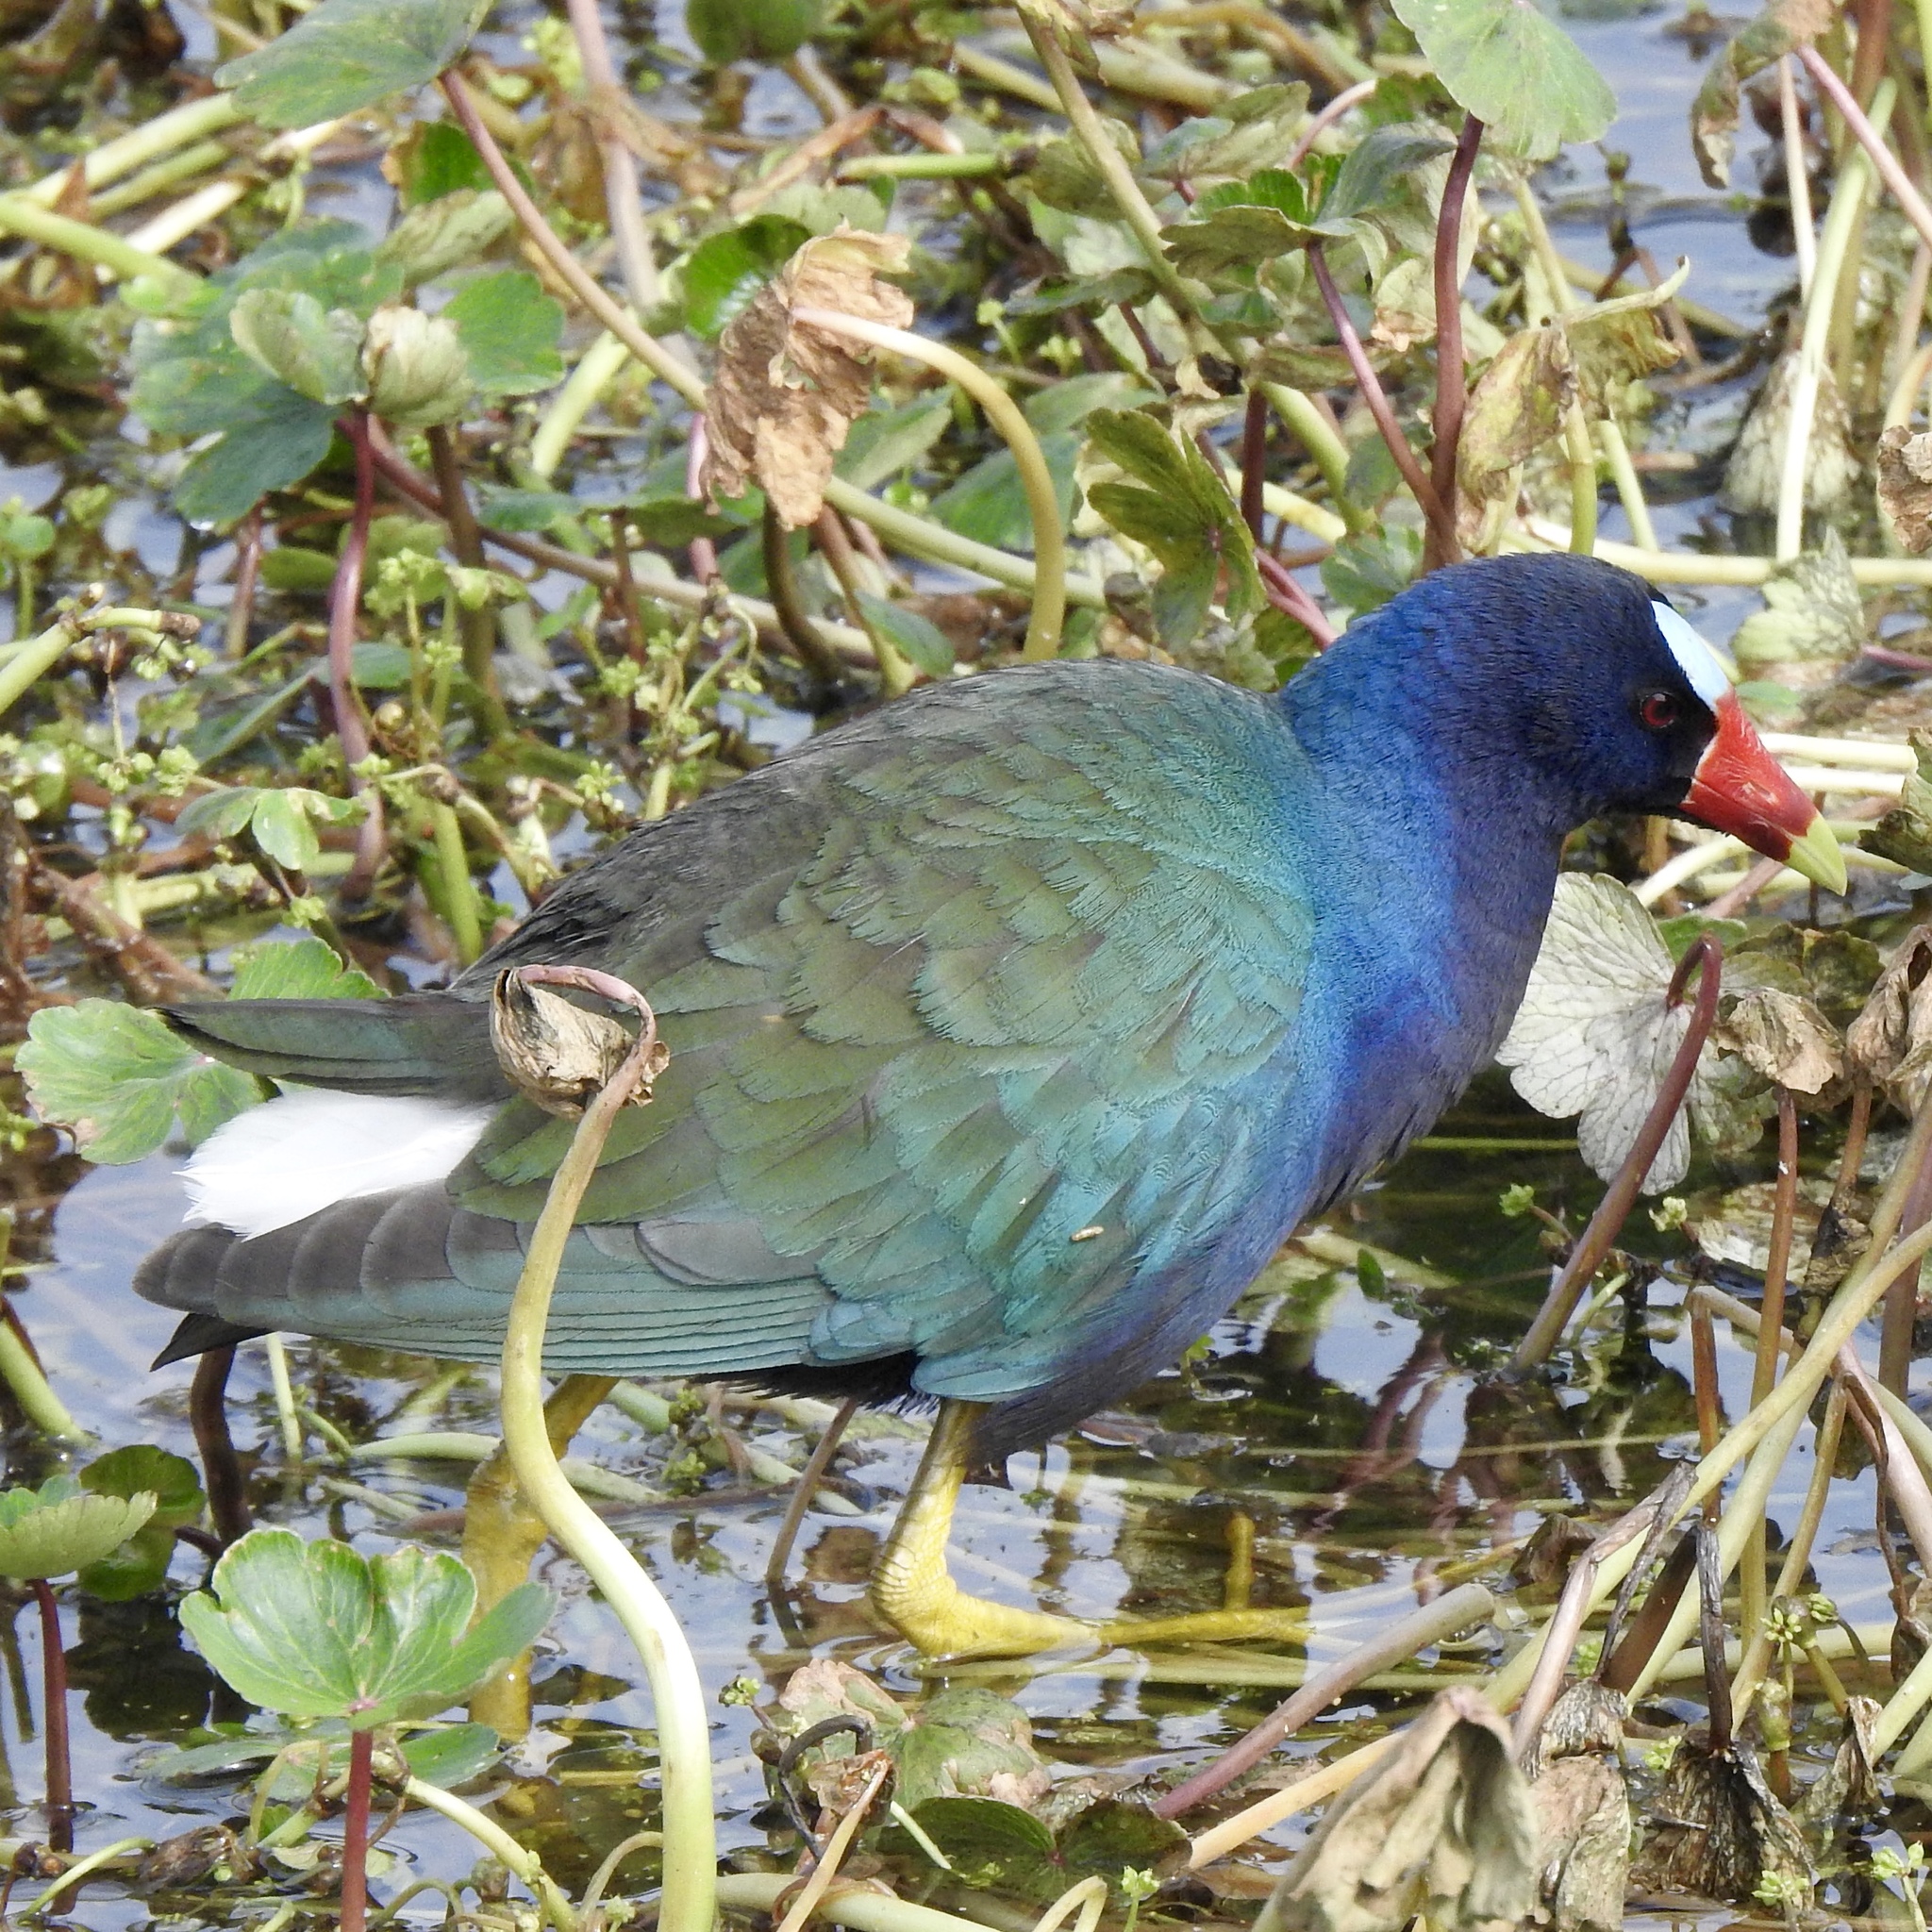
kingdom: Animalia
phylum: Chordata
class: Aves
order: Gruiformes
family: Rallidae
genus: Porphyrio
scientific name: Porphyrio martinica
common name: Purple gallinule
